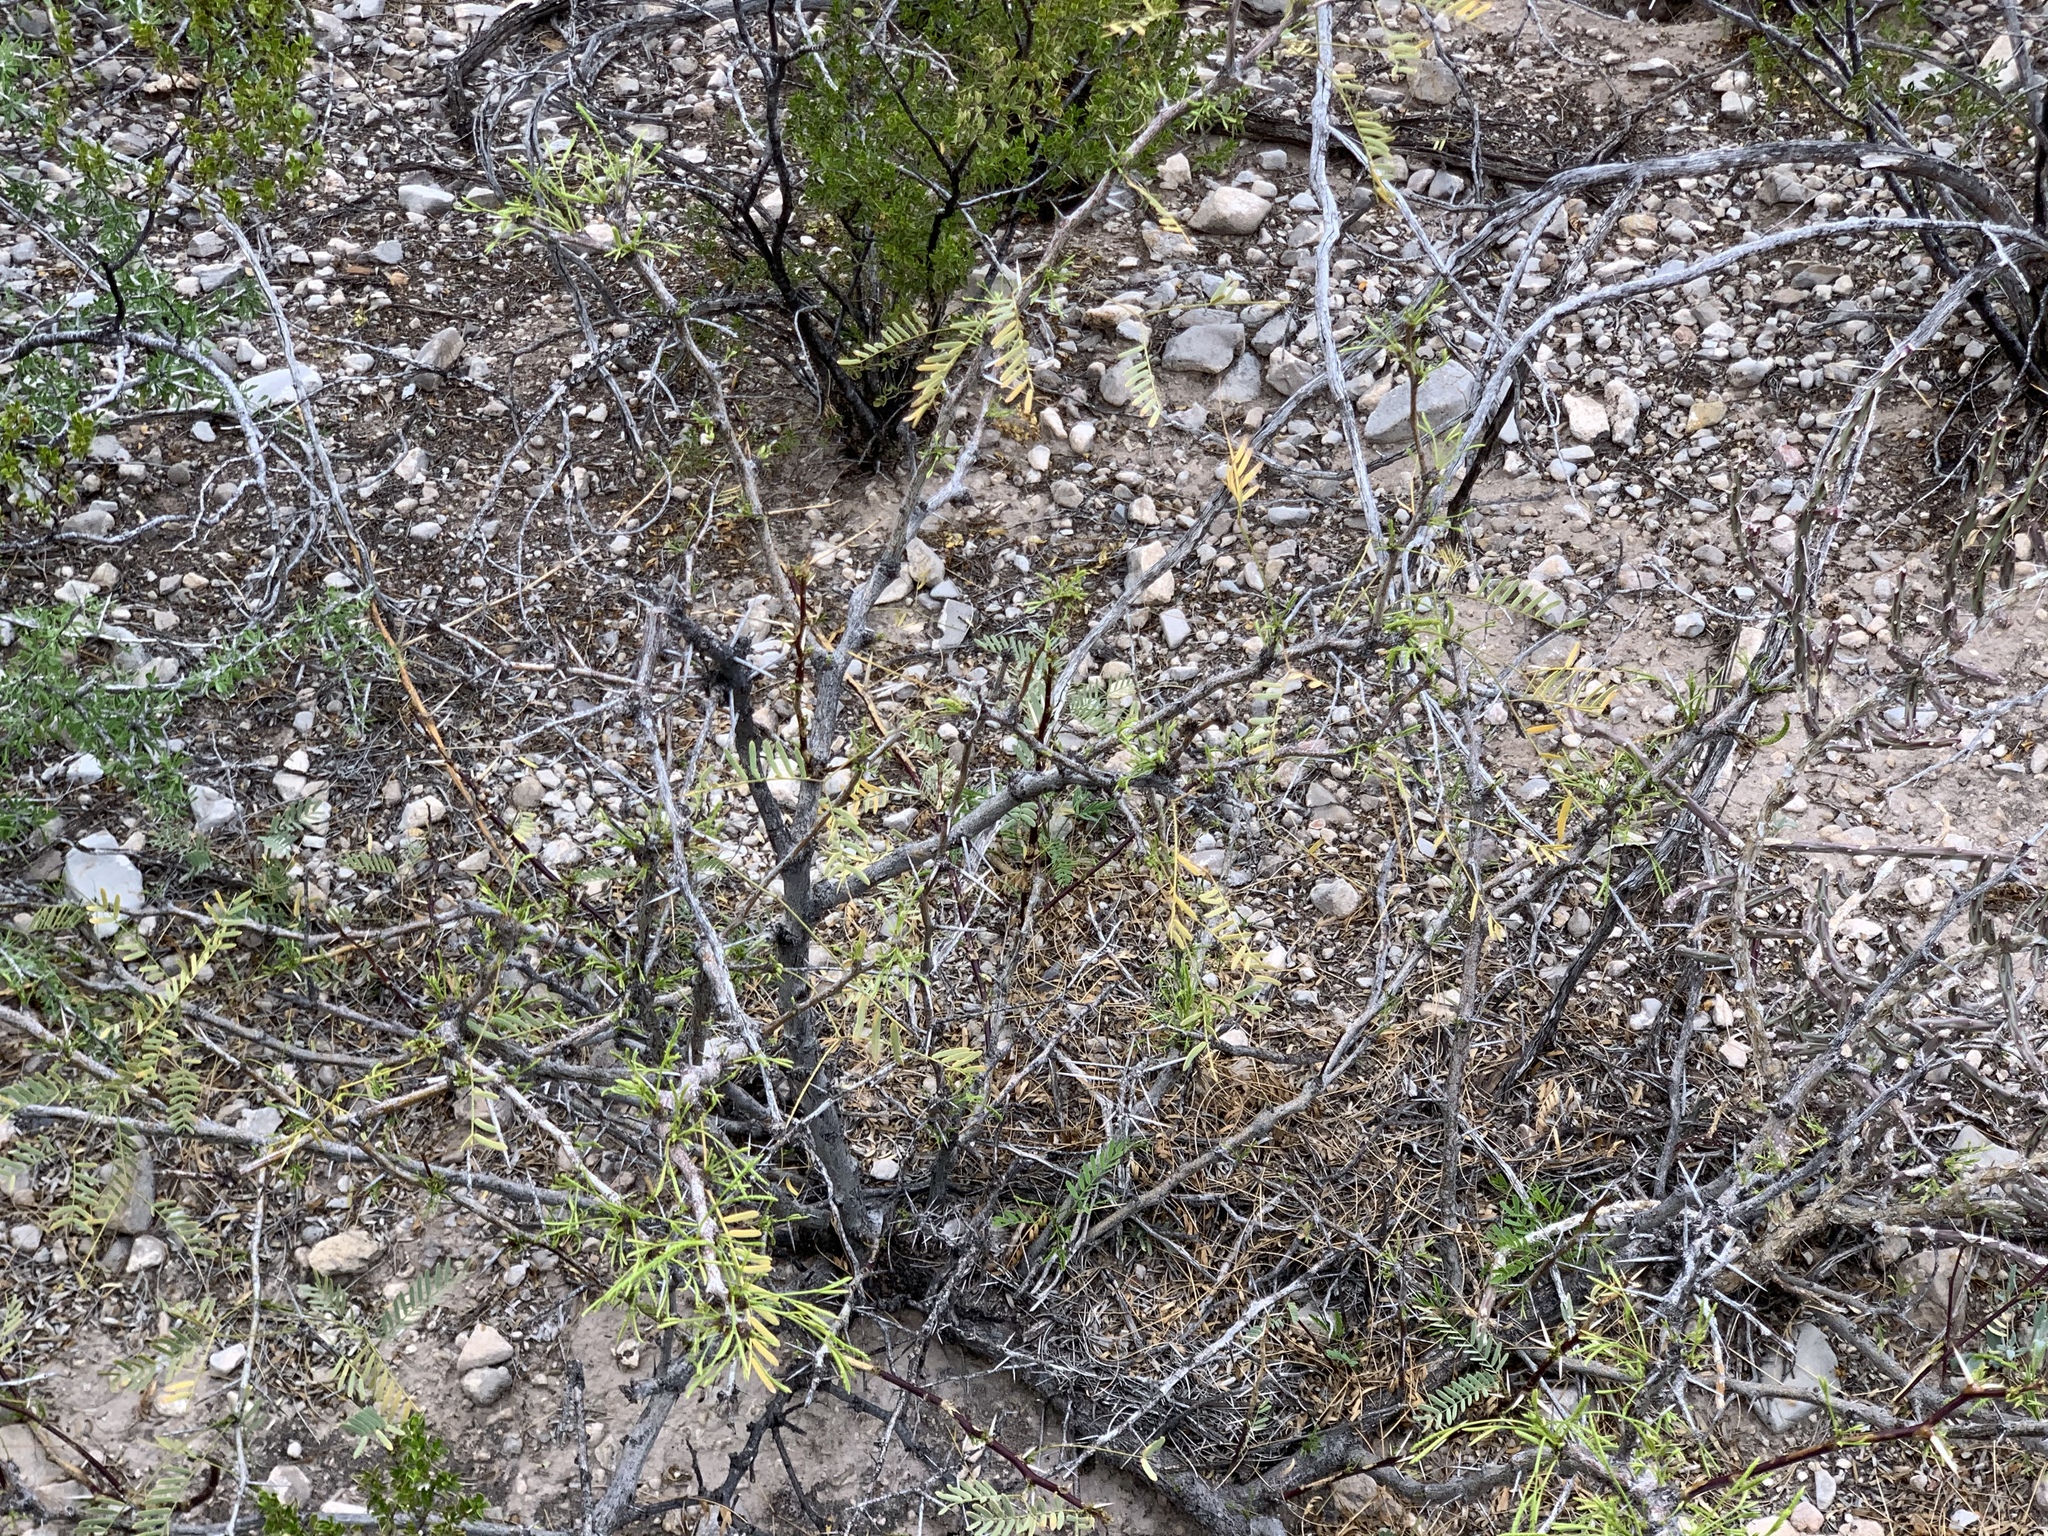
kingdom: Plantae
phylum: Tracheophyta
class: Magnoliopsida
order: Fabales
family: Fabaceae
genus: Prosopis
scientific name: Prosopis glandulosa
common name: Honey mesquite
